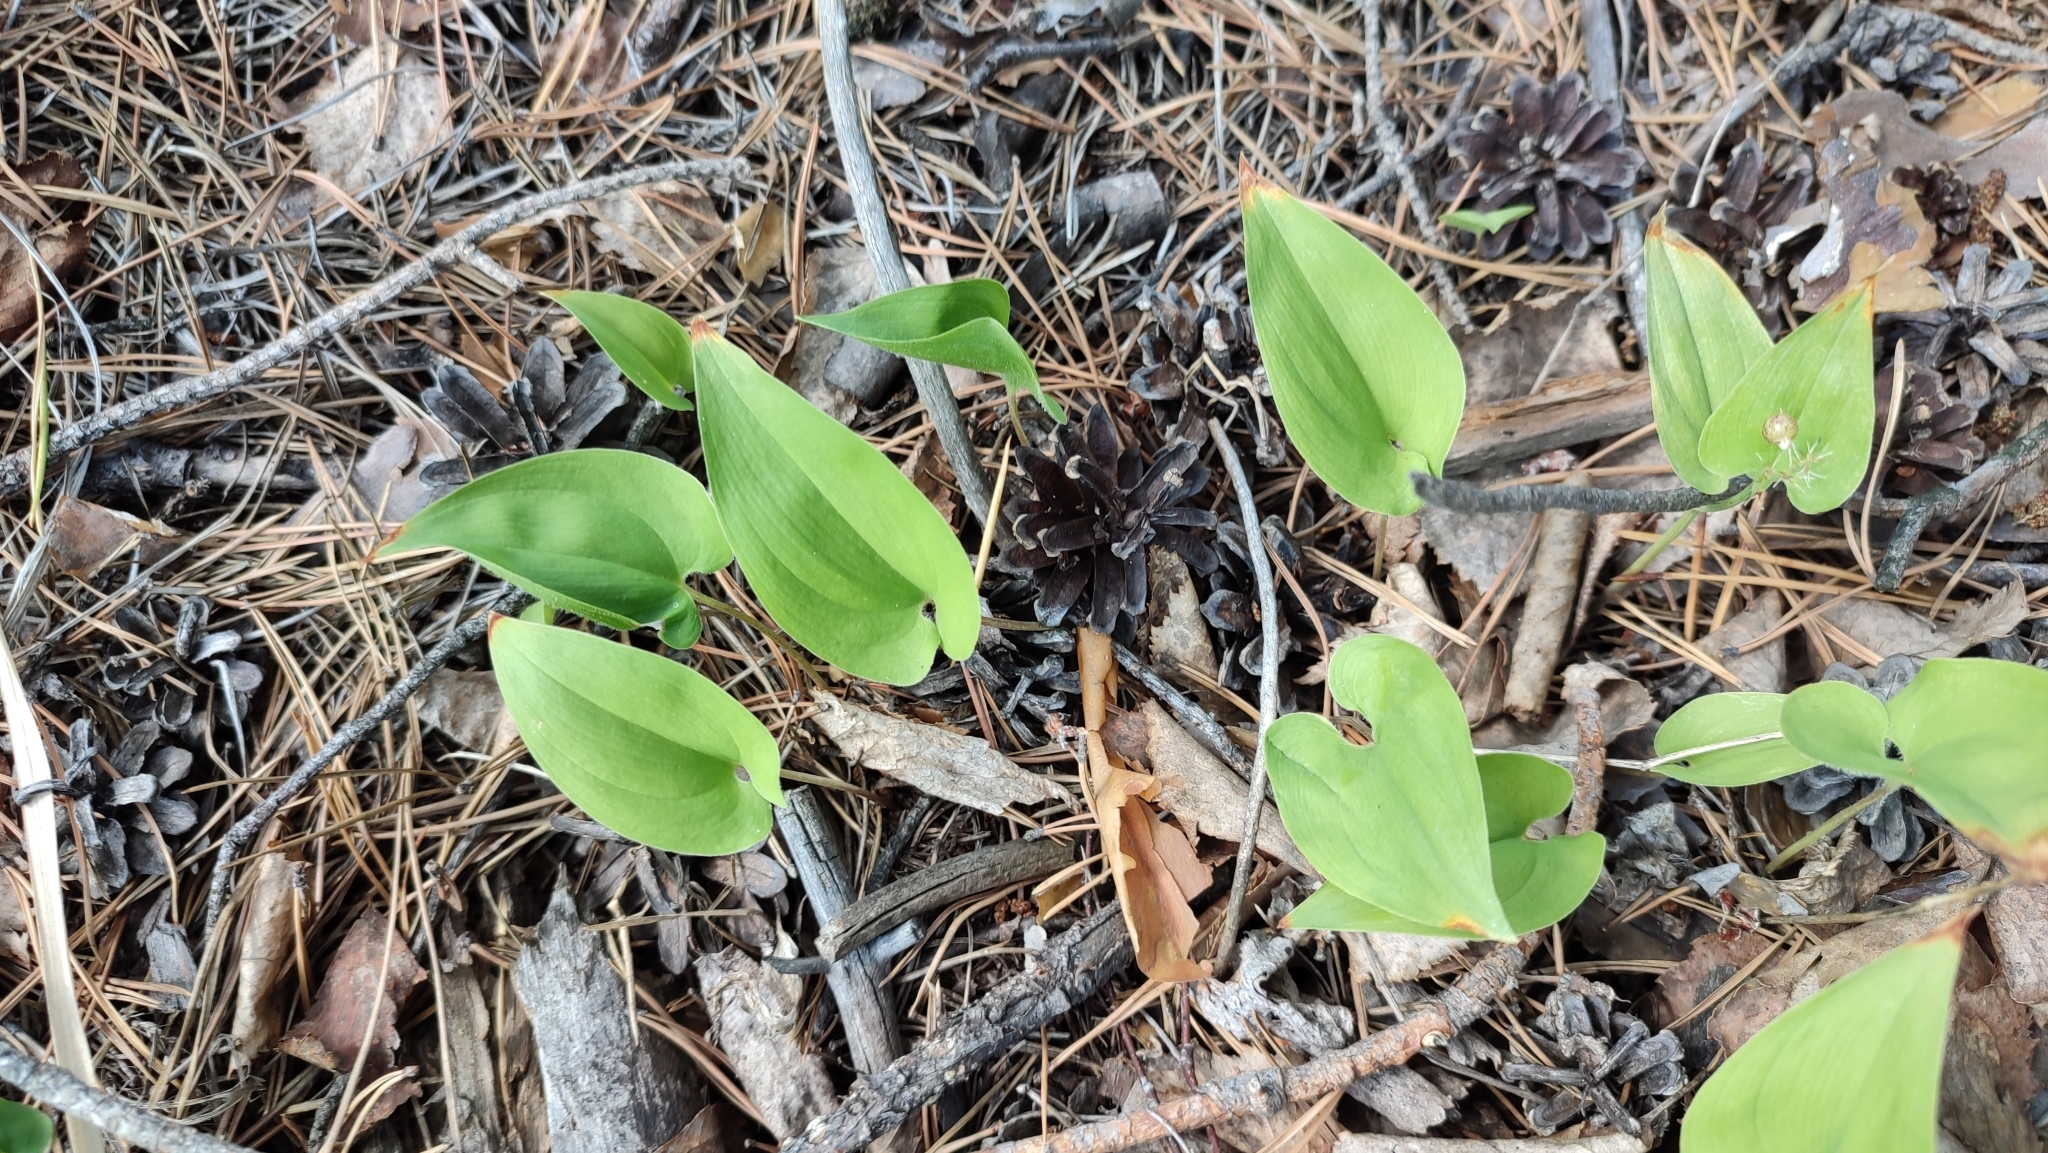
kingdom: Plantae
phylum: Tracheophyta
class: Liliopsida
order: Asparagales
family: Asparagaceae
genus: Maianthemum
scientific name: Maianthemum bifolium
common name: May lily
